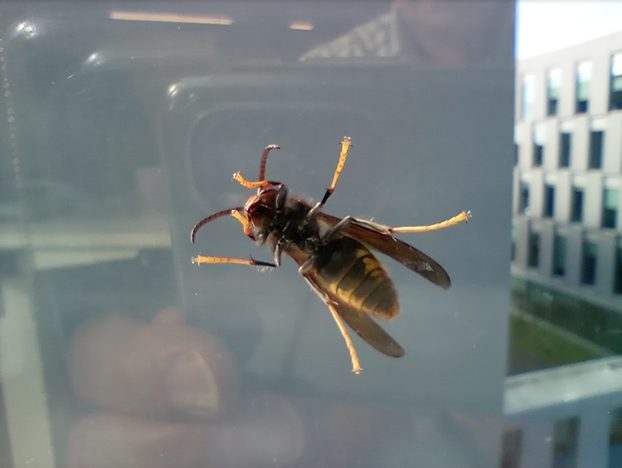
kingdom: Animalia
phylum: Arthropoda
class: Insecta
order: Hymenoptera
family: Vespidae
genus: Vespa
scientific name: Vespa velutina
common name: Asian hornet
